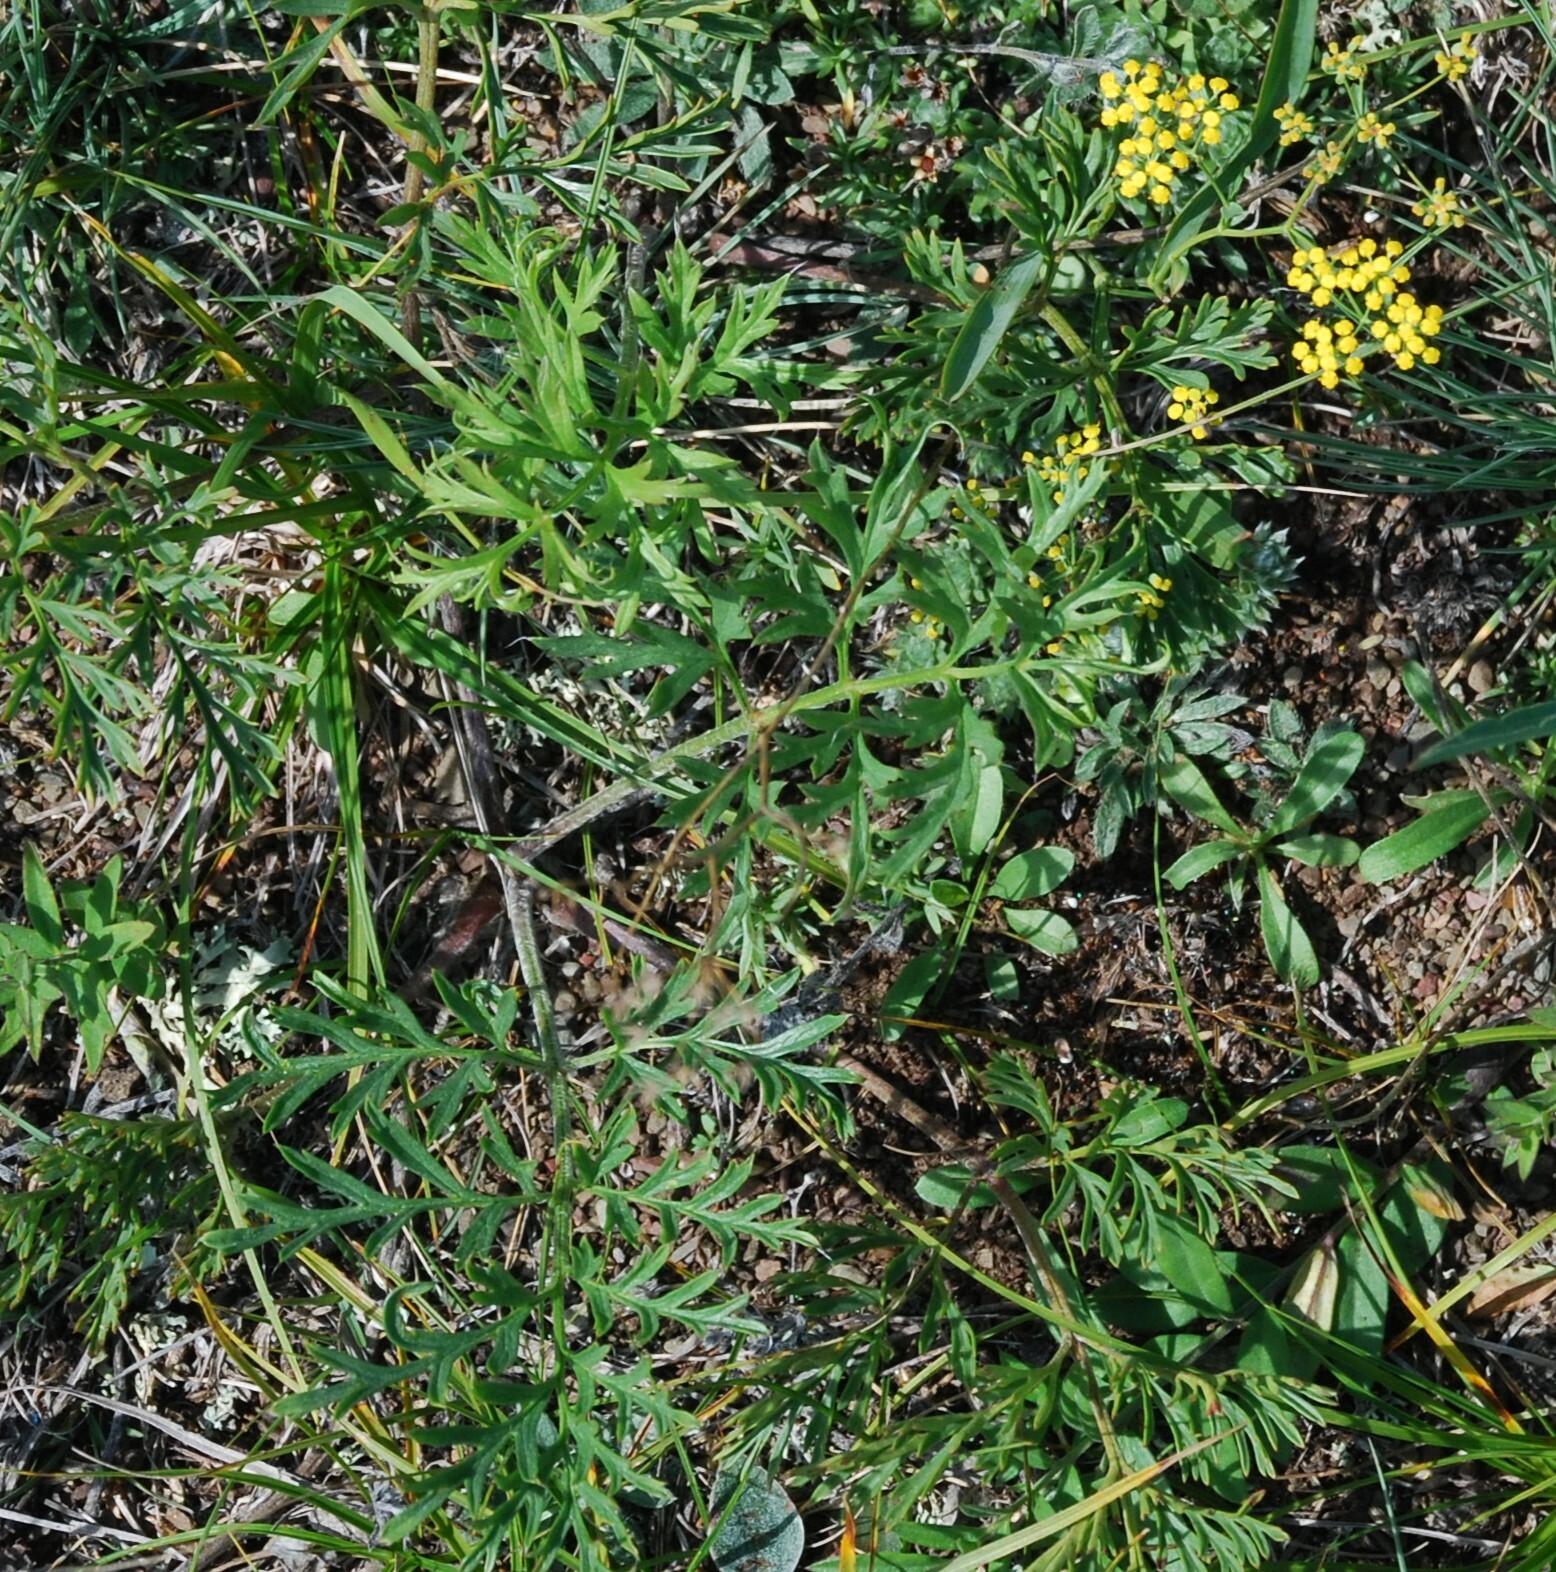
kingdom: Plantae
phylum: Tracheophyta
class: Magnoliopsida
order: Apiales
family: Apiaceae
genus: Bupleurum
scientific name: Bupleurum scorzonerifolium
